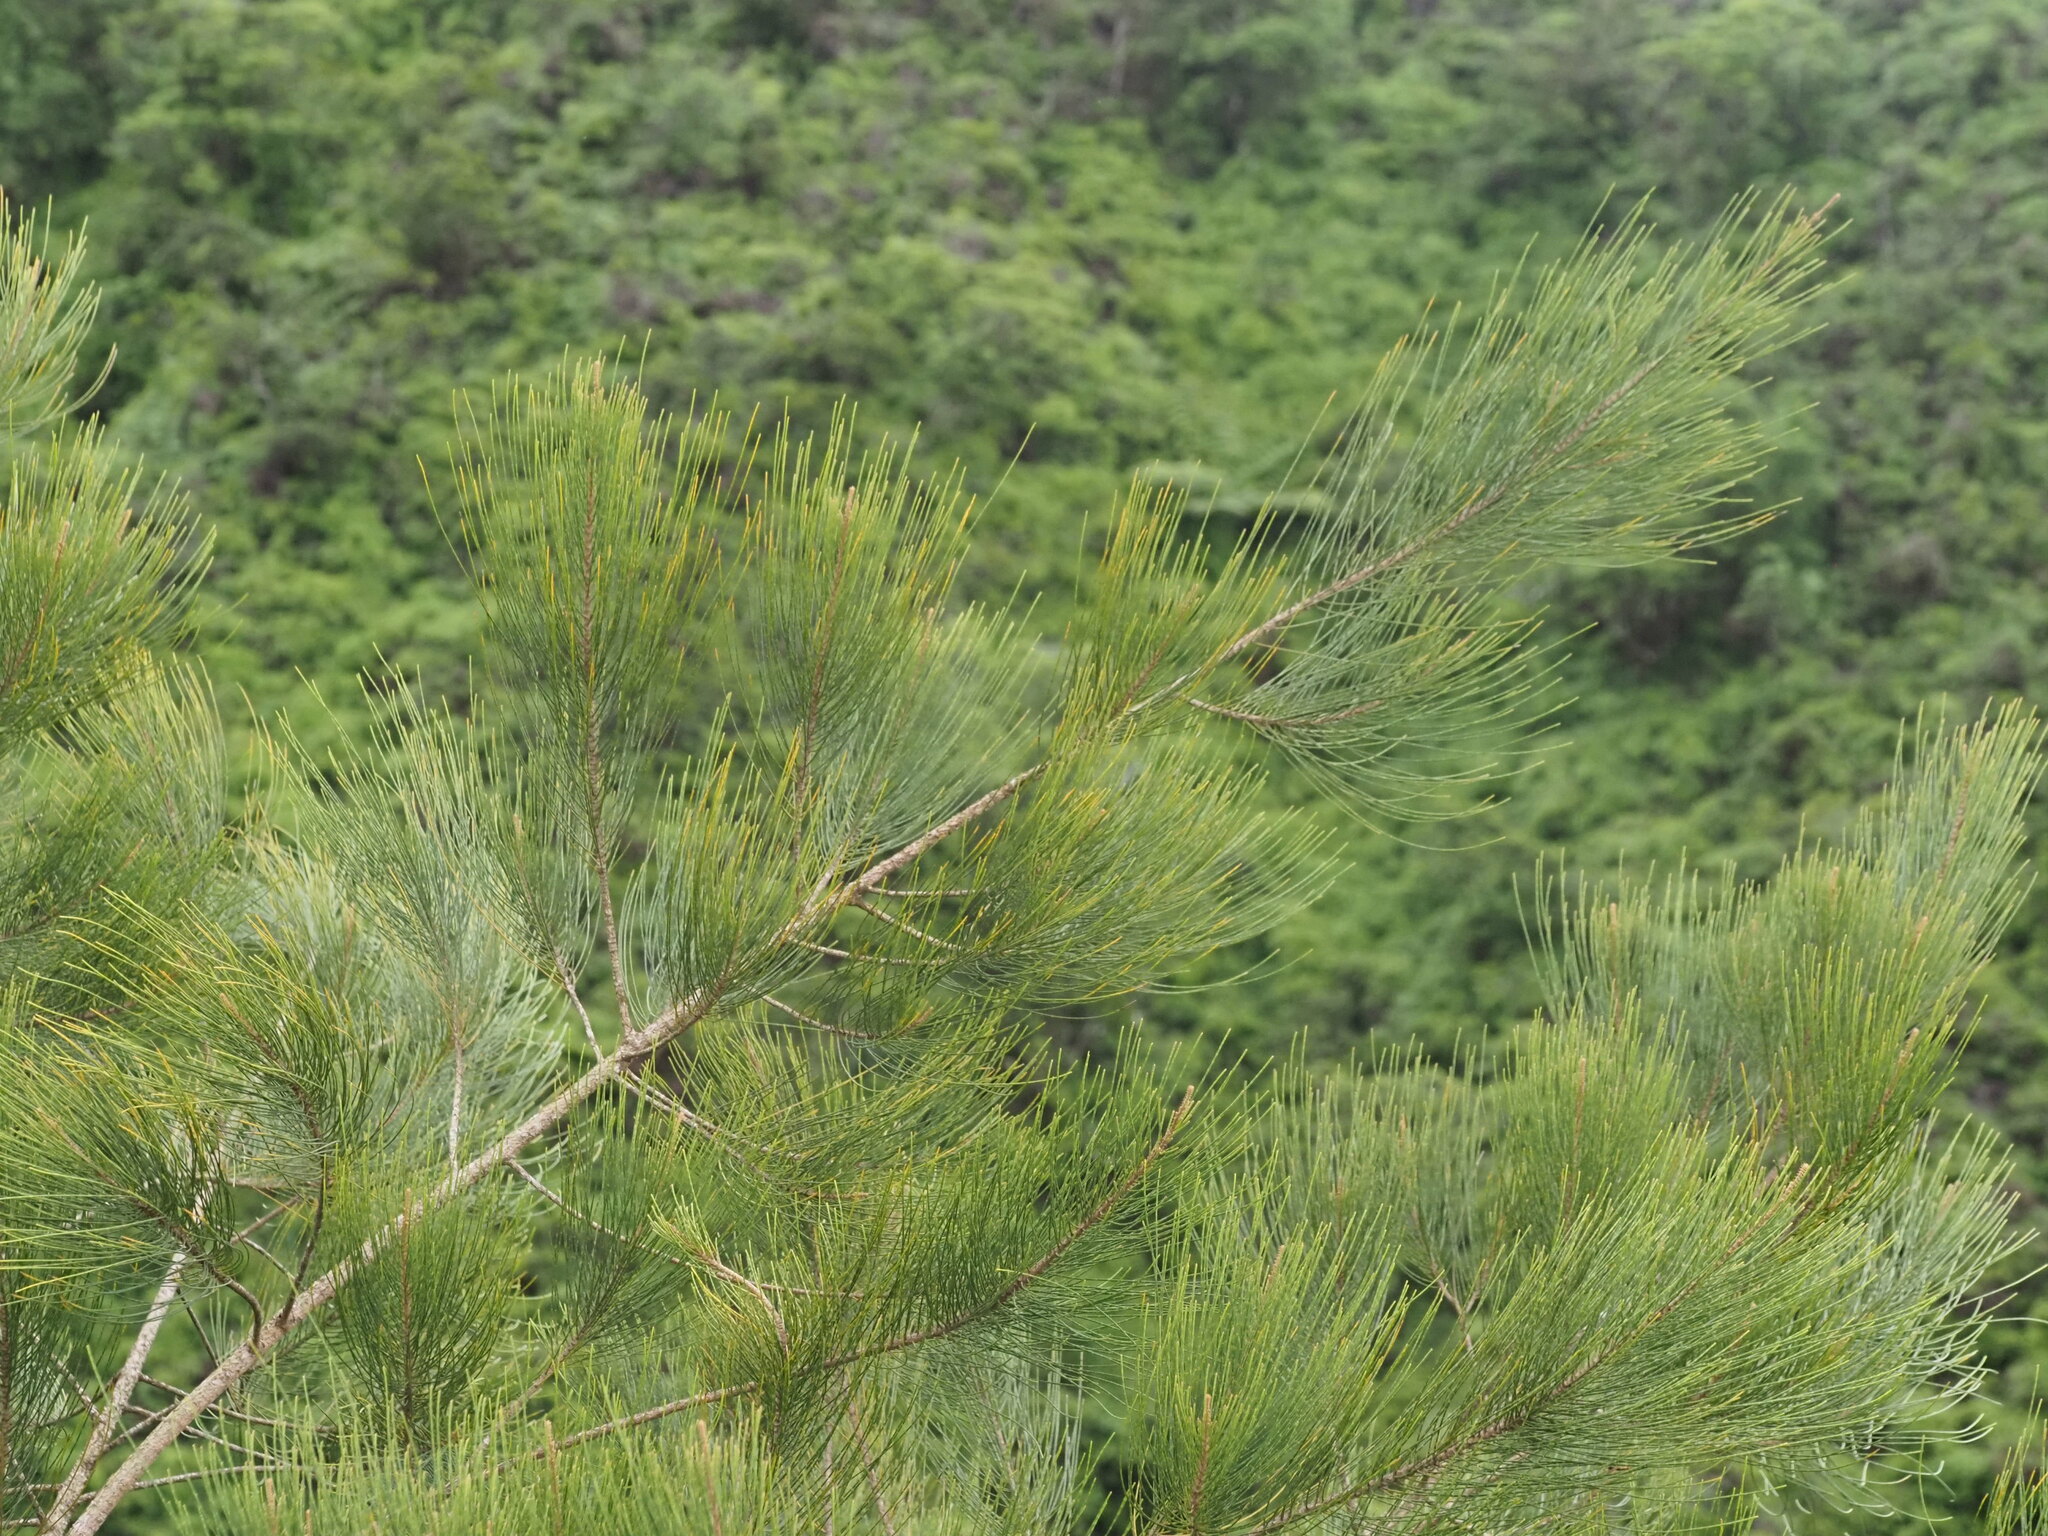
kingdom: Plantae
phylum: Tracheophyta
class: Magnoliopsida
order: Fagales
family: Casuarinaceae
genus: Casuarina
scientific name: Casuarina equisetifolia
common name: Beach sheoak
